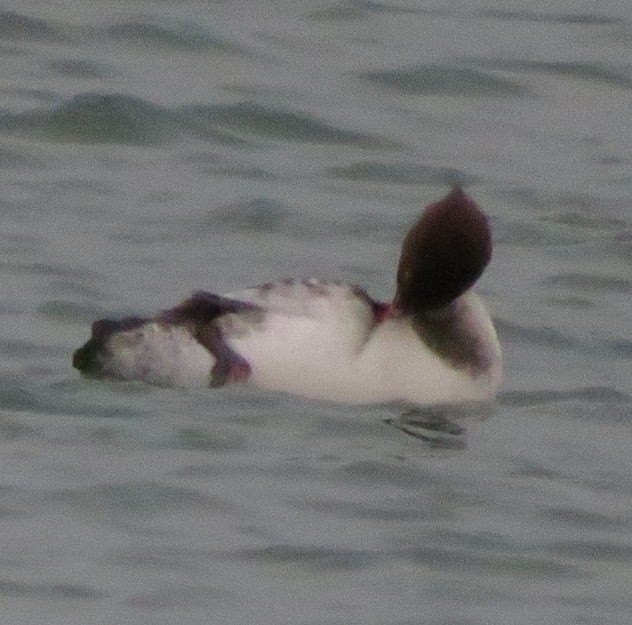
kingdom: Animalia
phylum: Chordata
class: Aves
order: Anseriformes
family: Anatidae
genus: Mergus
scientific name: Mergus merganser
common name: Common merganser
